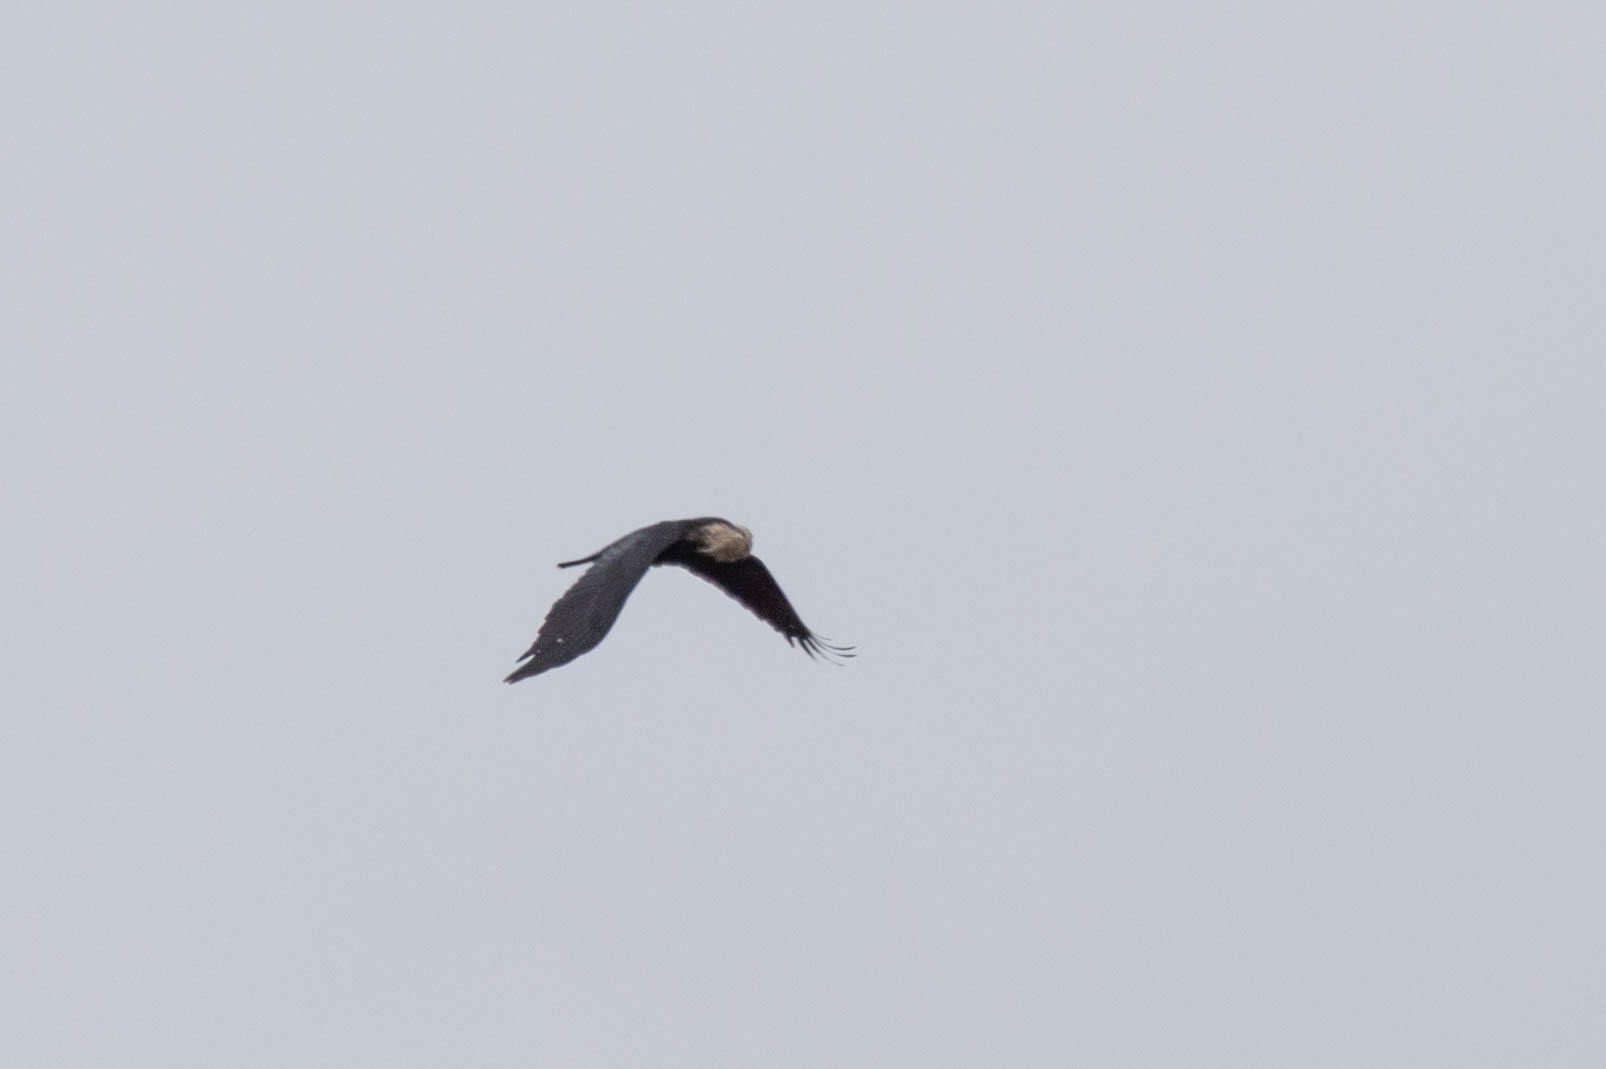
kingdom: Animalia
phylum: Chordata
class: Aves
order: Passeriformes
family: Corvidae
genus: Corvus
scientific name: Corvus corax
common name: Common raven
